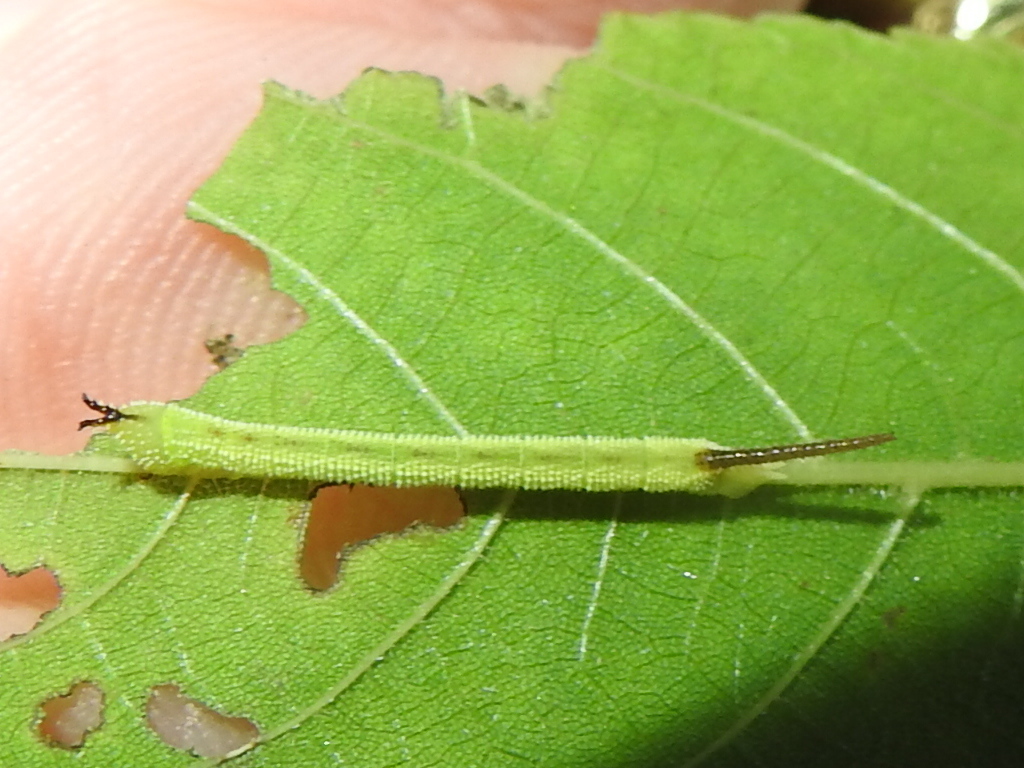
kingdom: Animalia
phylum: Arthropoda
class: Insecta
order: Lepidoptera
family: Sphingidae
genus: Amorpha
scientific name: Amorpha juglandis
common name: Walnut sphinx
